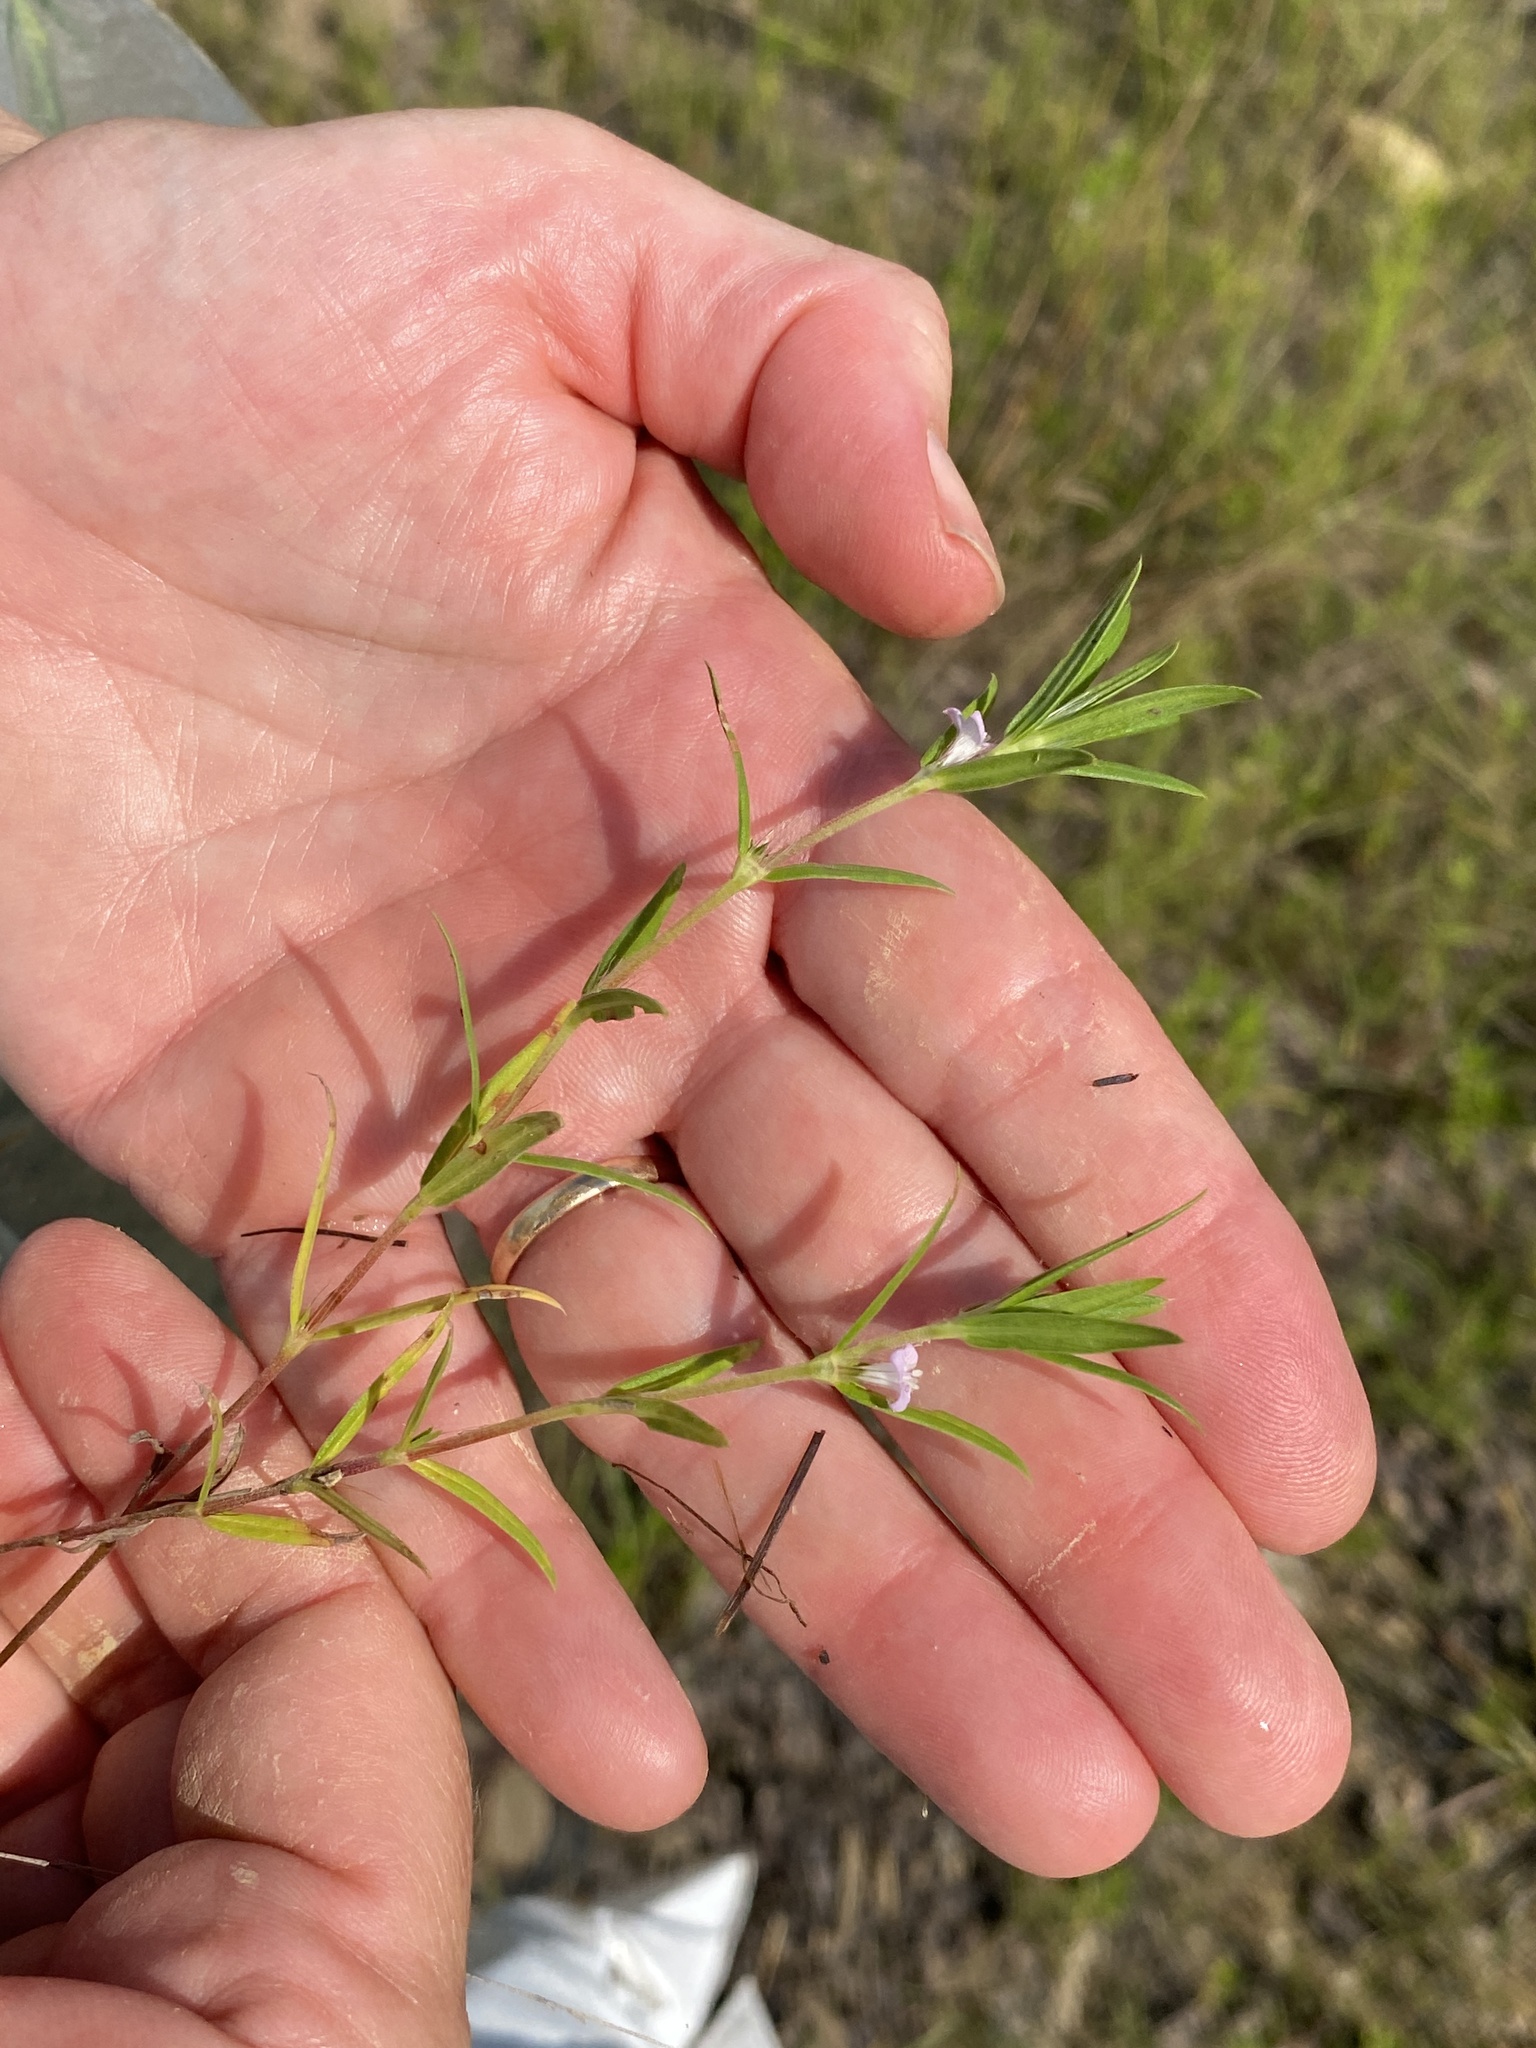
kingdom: Plantae
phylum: Tracheophyta
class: Magnoliopsida
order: Gentianales
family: Rubiaceae
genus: Hexasepalum
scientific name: Hexasepalum teres
